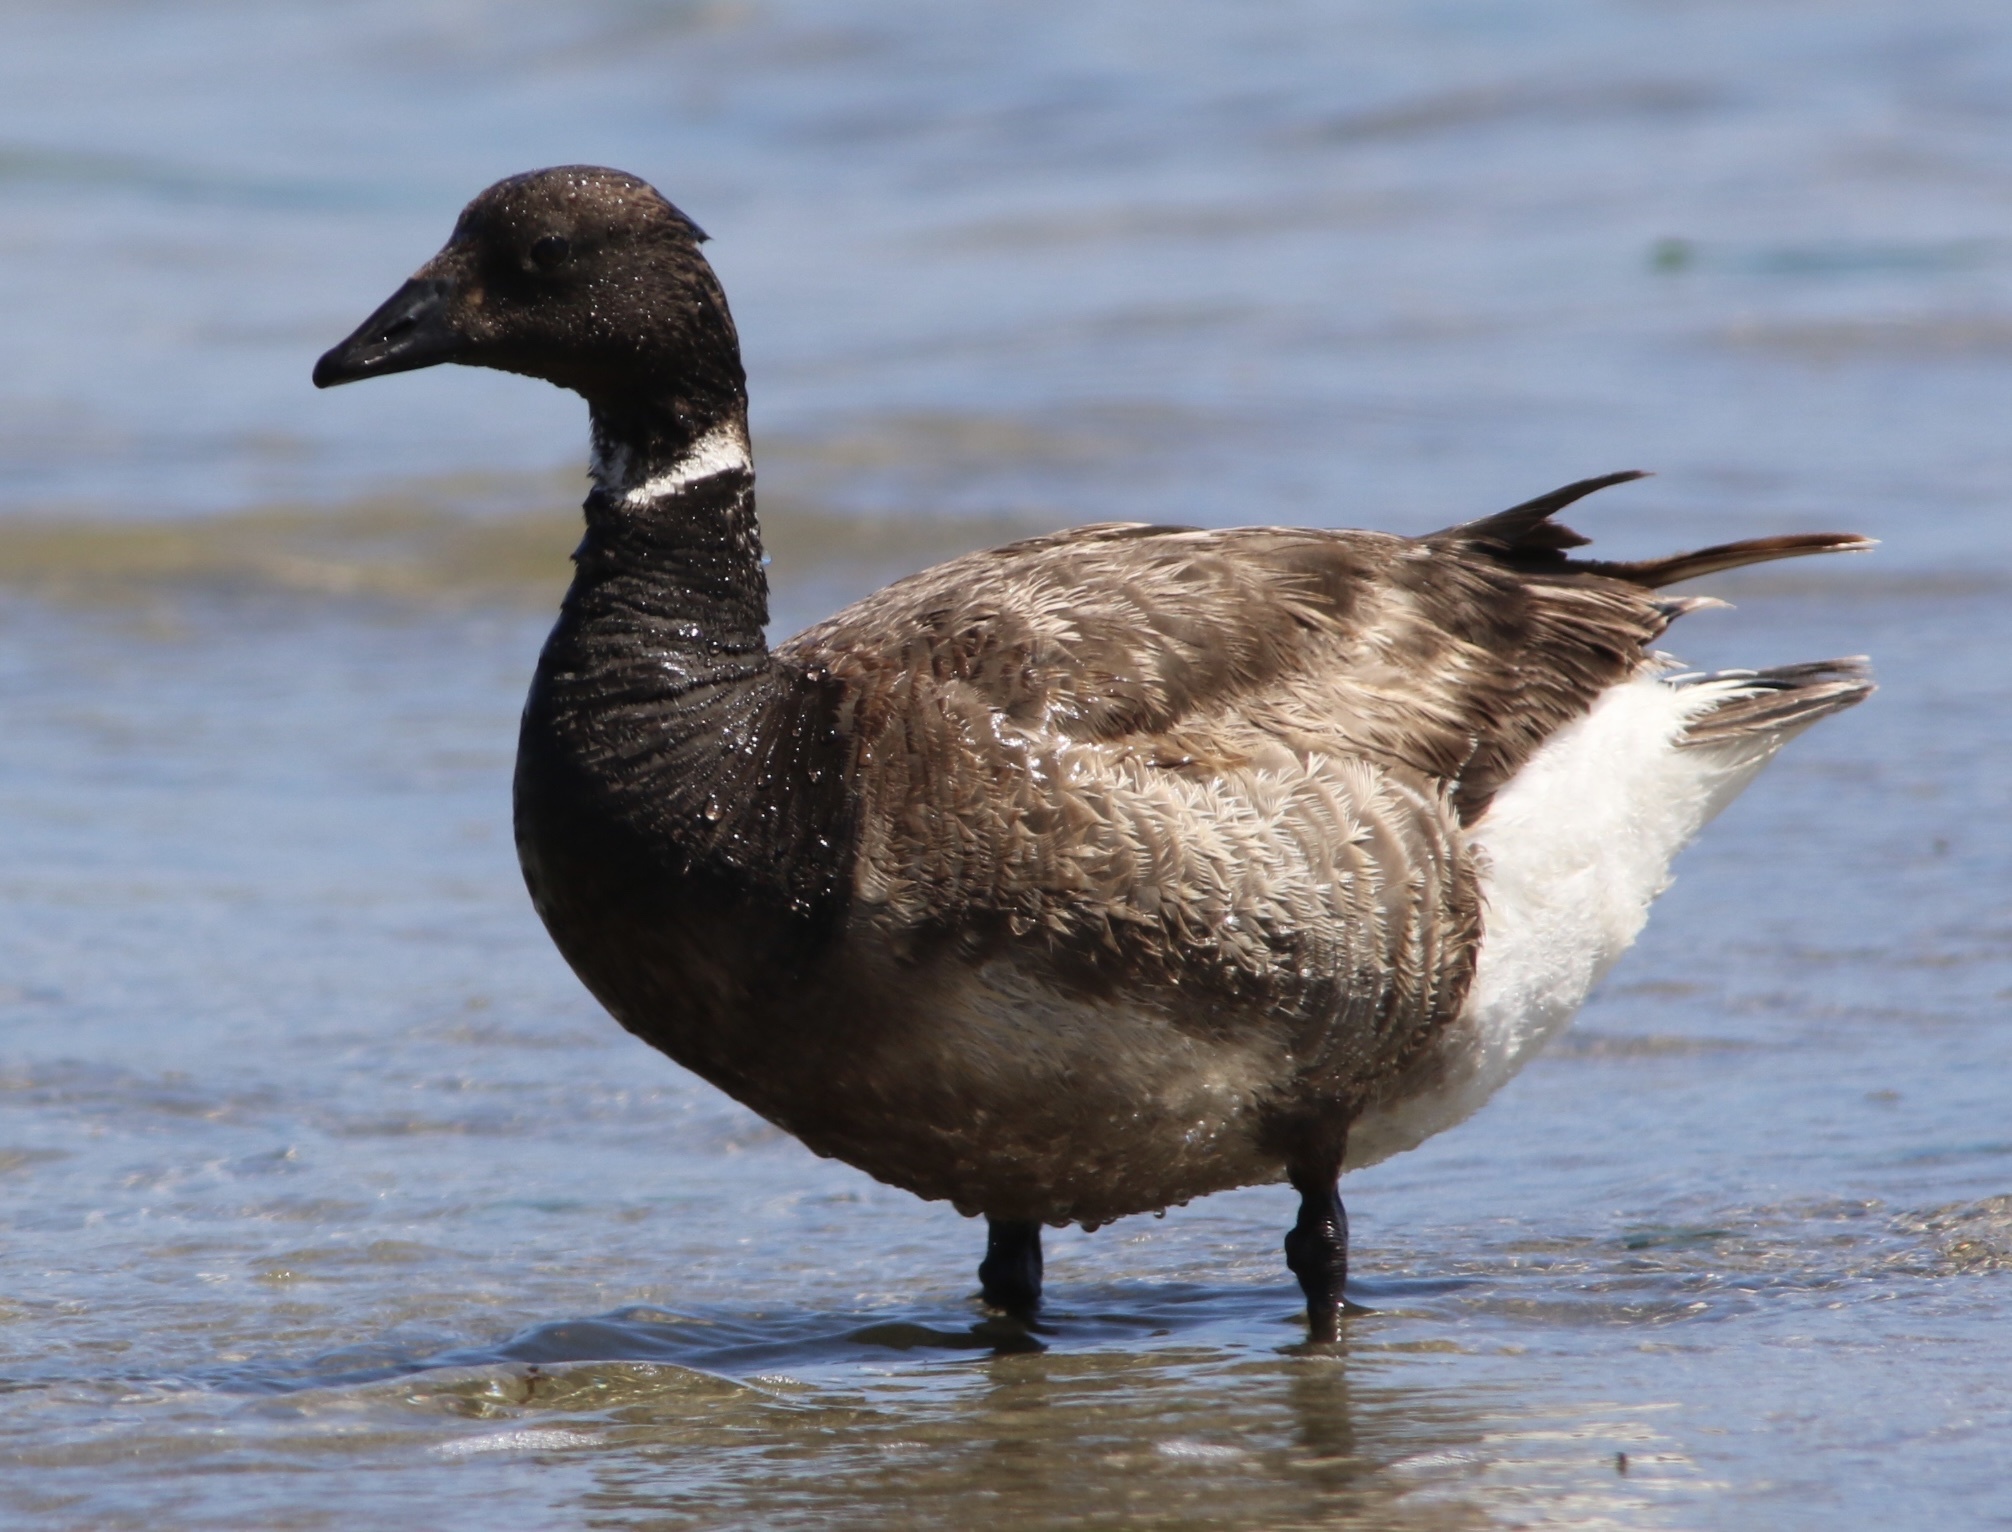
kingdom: Animalia
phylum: Chordata
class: Aves
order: Anseriformes
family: Anatidae
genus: Branta
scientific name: Branta bernicla
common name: Brant goose
